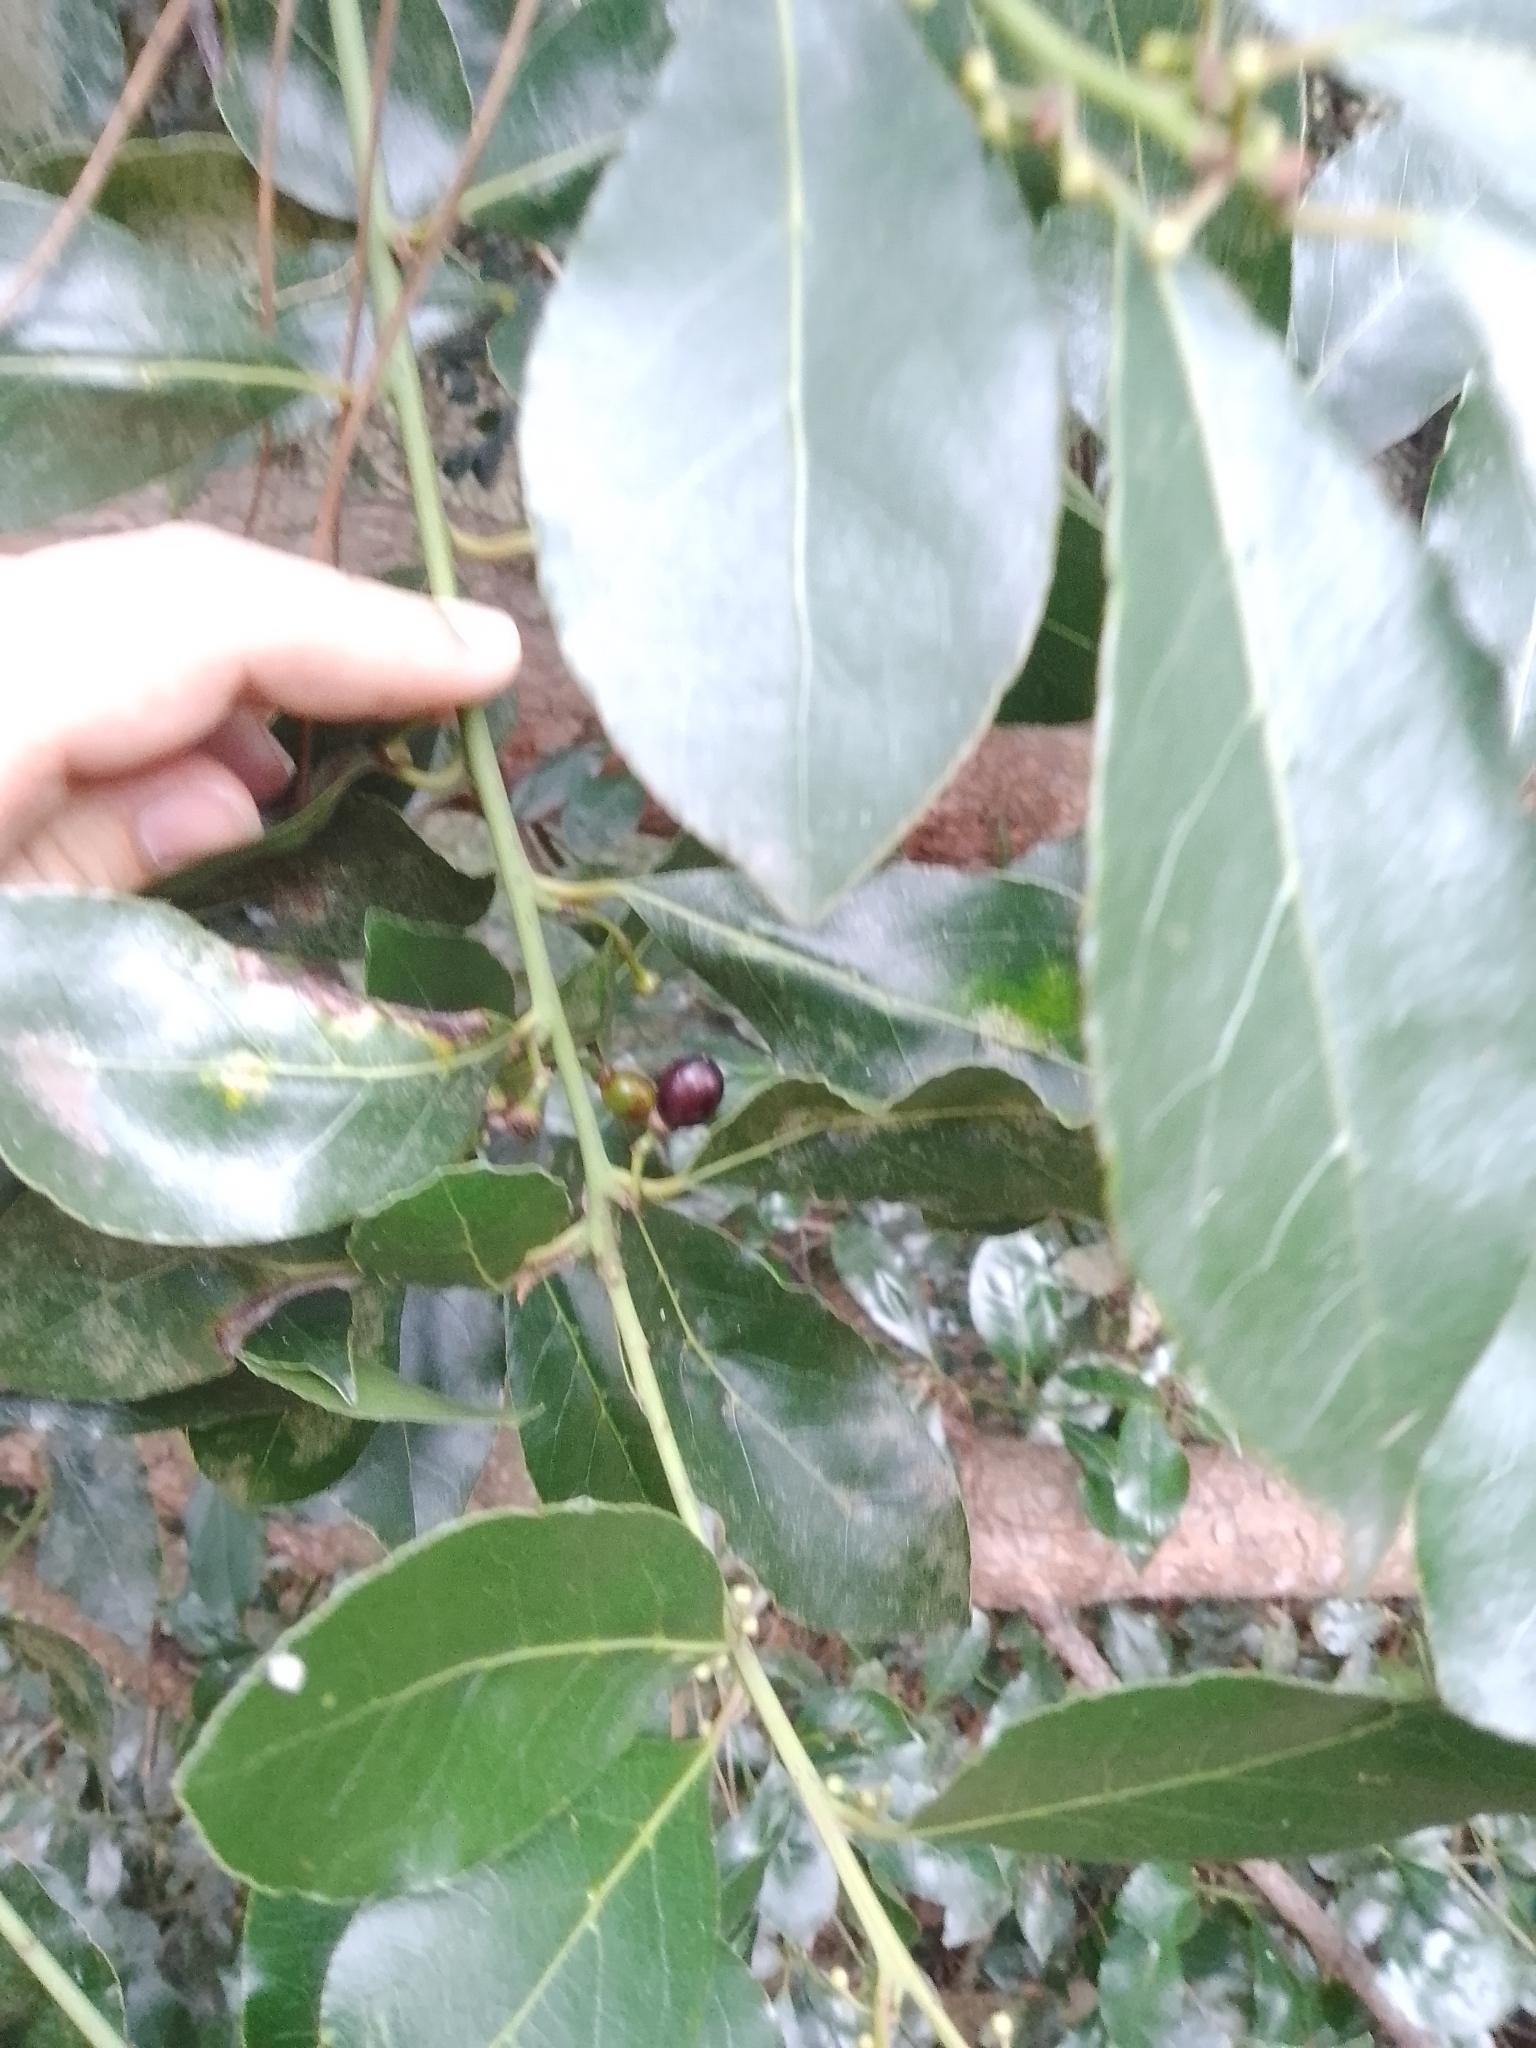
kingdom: Plantae
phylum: Tracheophyta
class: Magnoliopsida
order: Laurales
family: Lauraceae
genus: Laurus
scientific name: Laurus nobilis
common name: Bay
